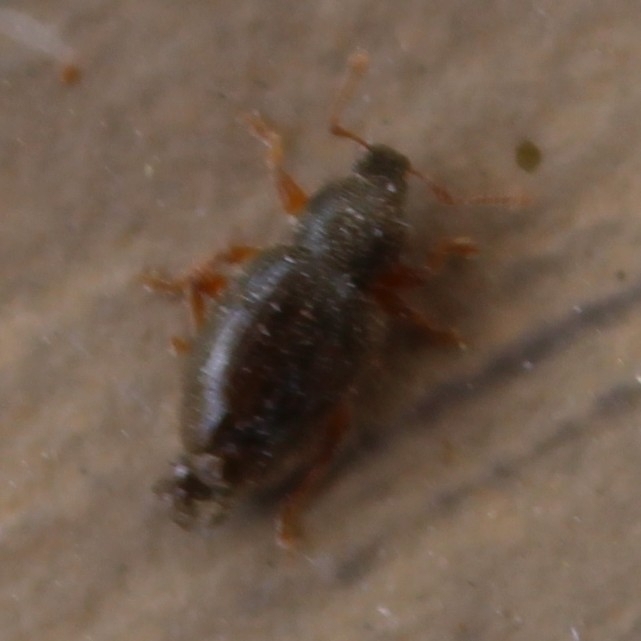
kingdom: Animalia
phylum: Arthropoda
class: Insecta
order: Coleoptera
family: Curculionidae
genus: Exomias
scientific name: Exomias pellucidus
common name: Hairy spider weevil
